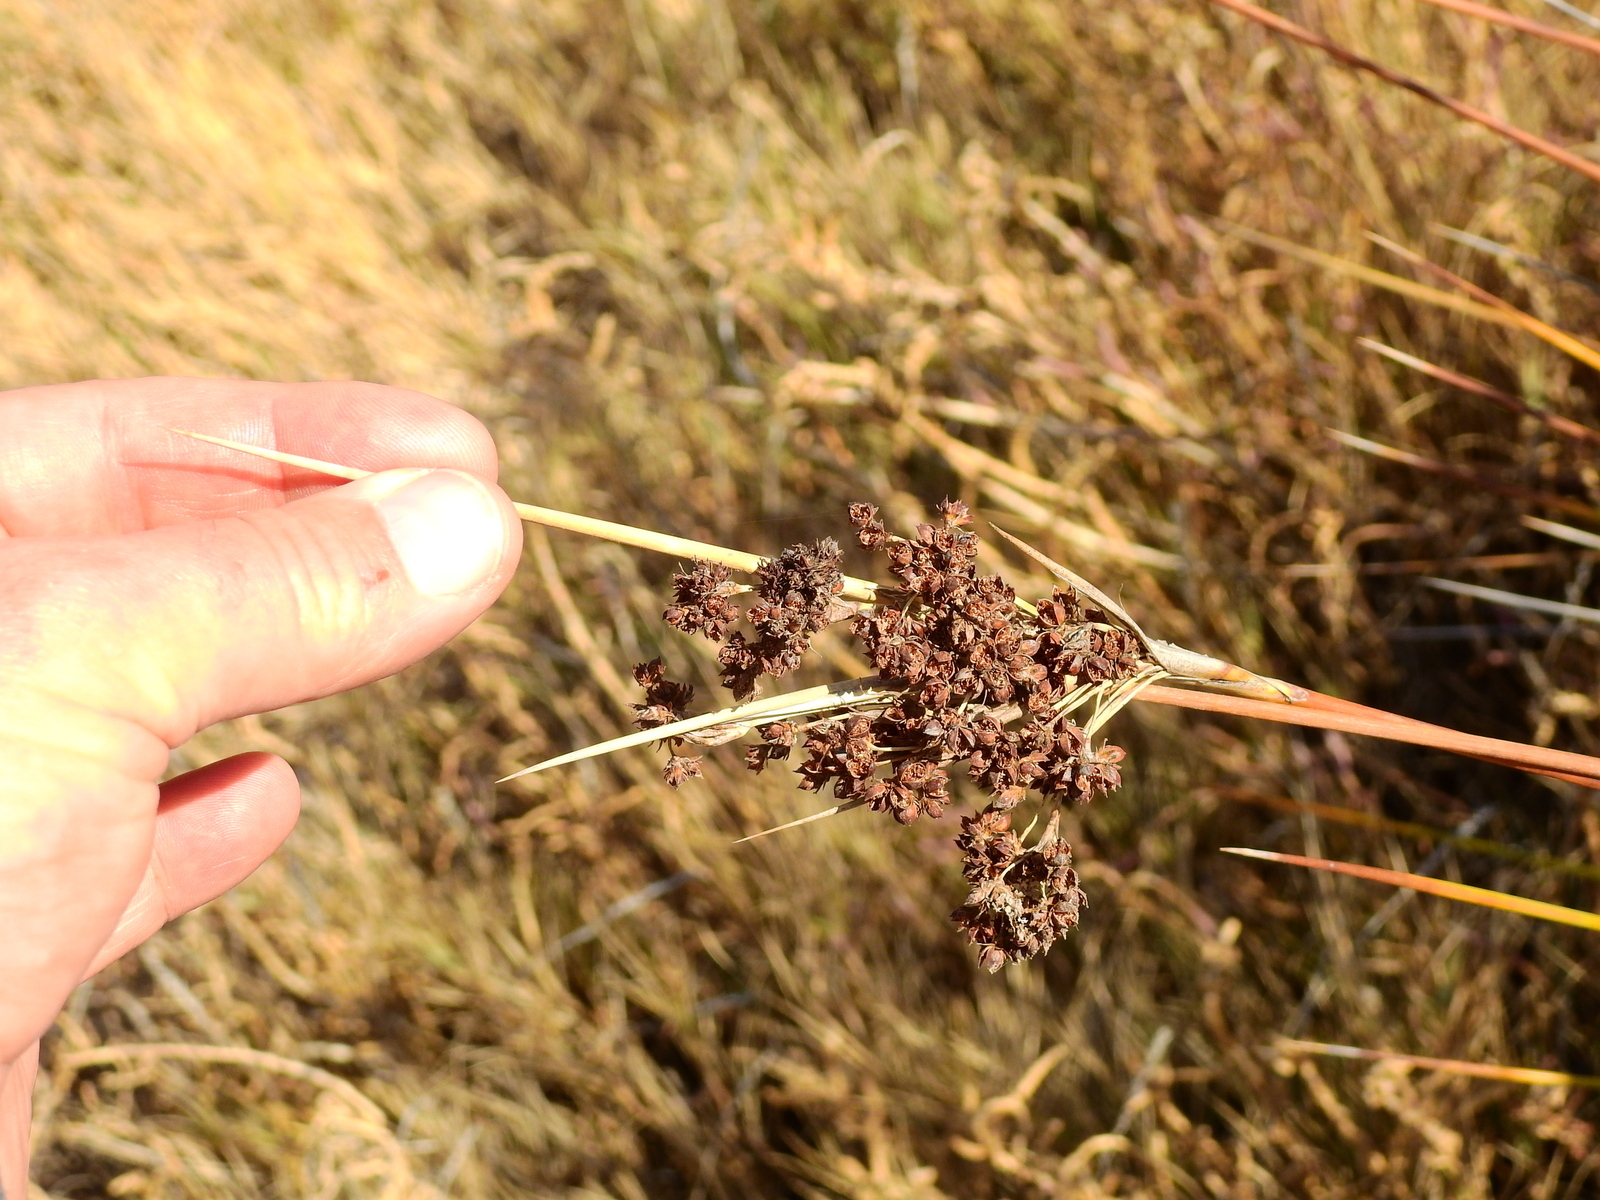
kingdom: Plantae
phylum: Tracheophyta
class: Liliopsida
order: Poales
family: Juncaceae
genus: Juncus
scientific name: Juncus acutus
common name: Sharp rush
